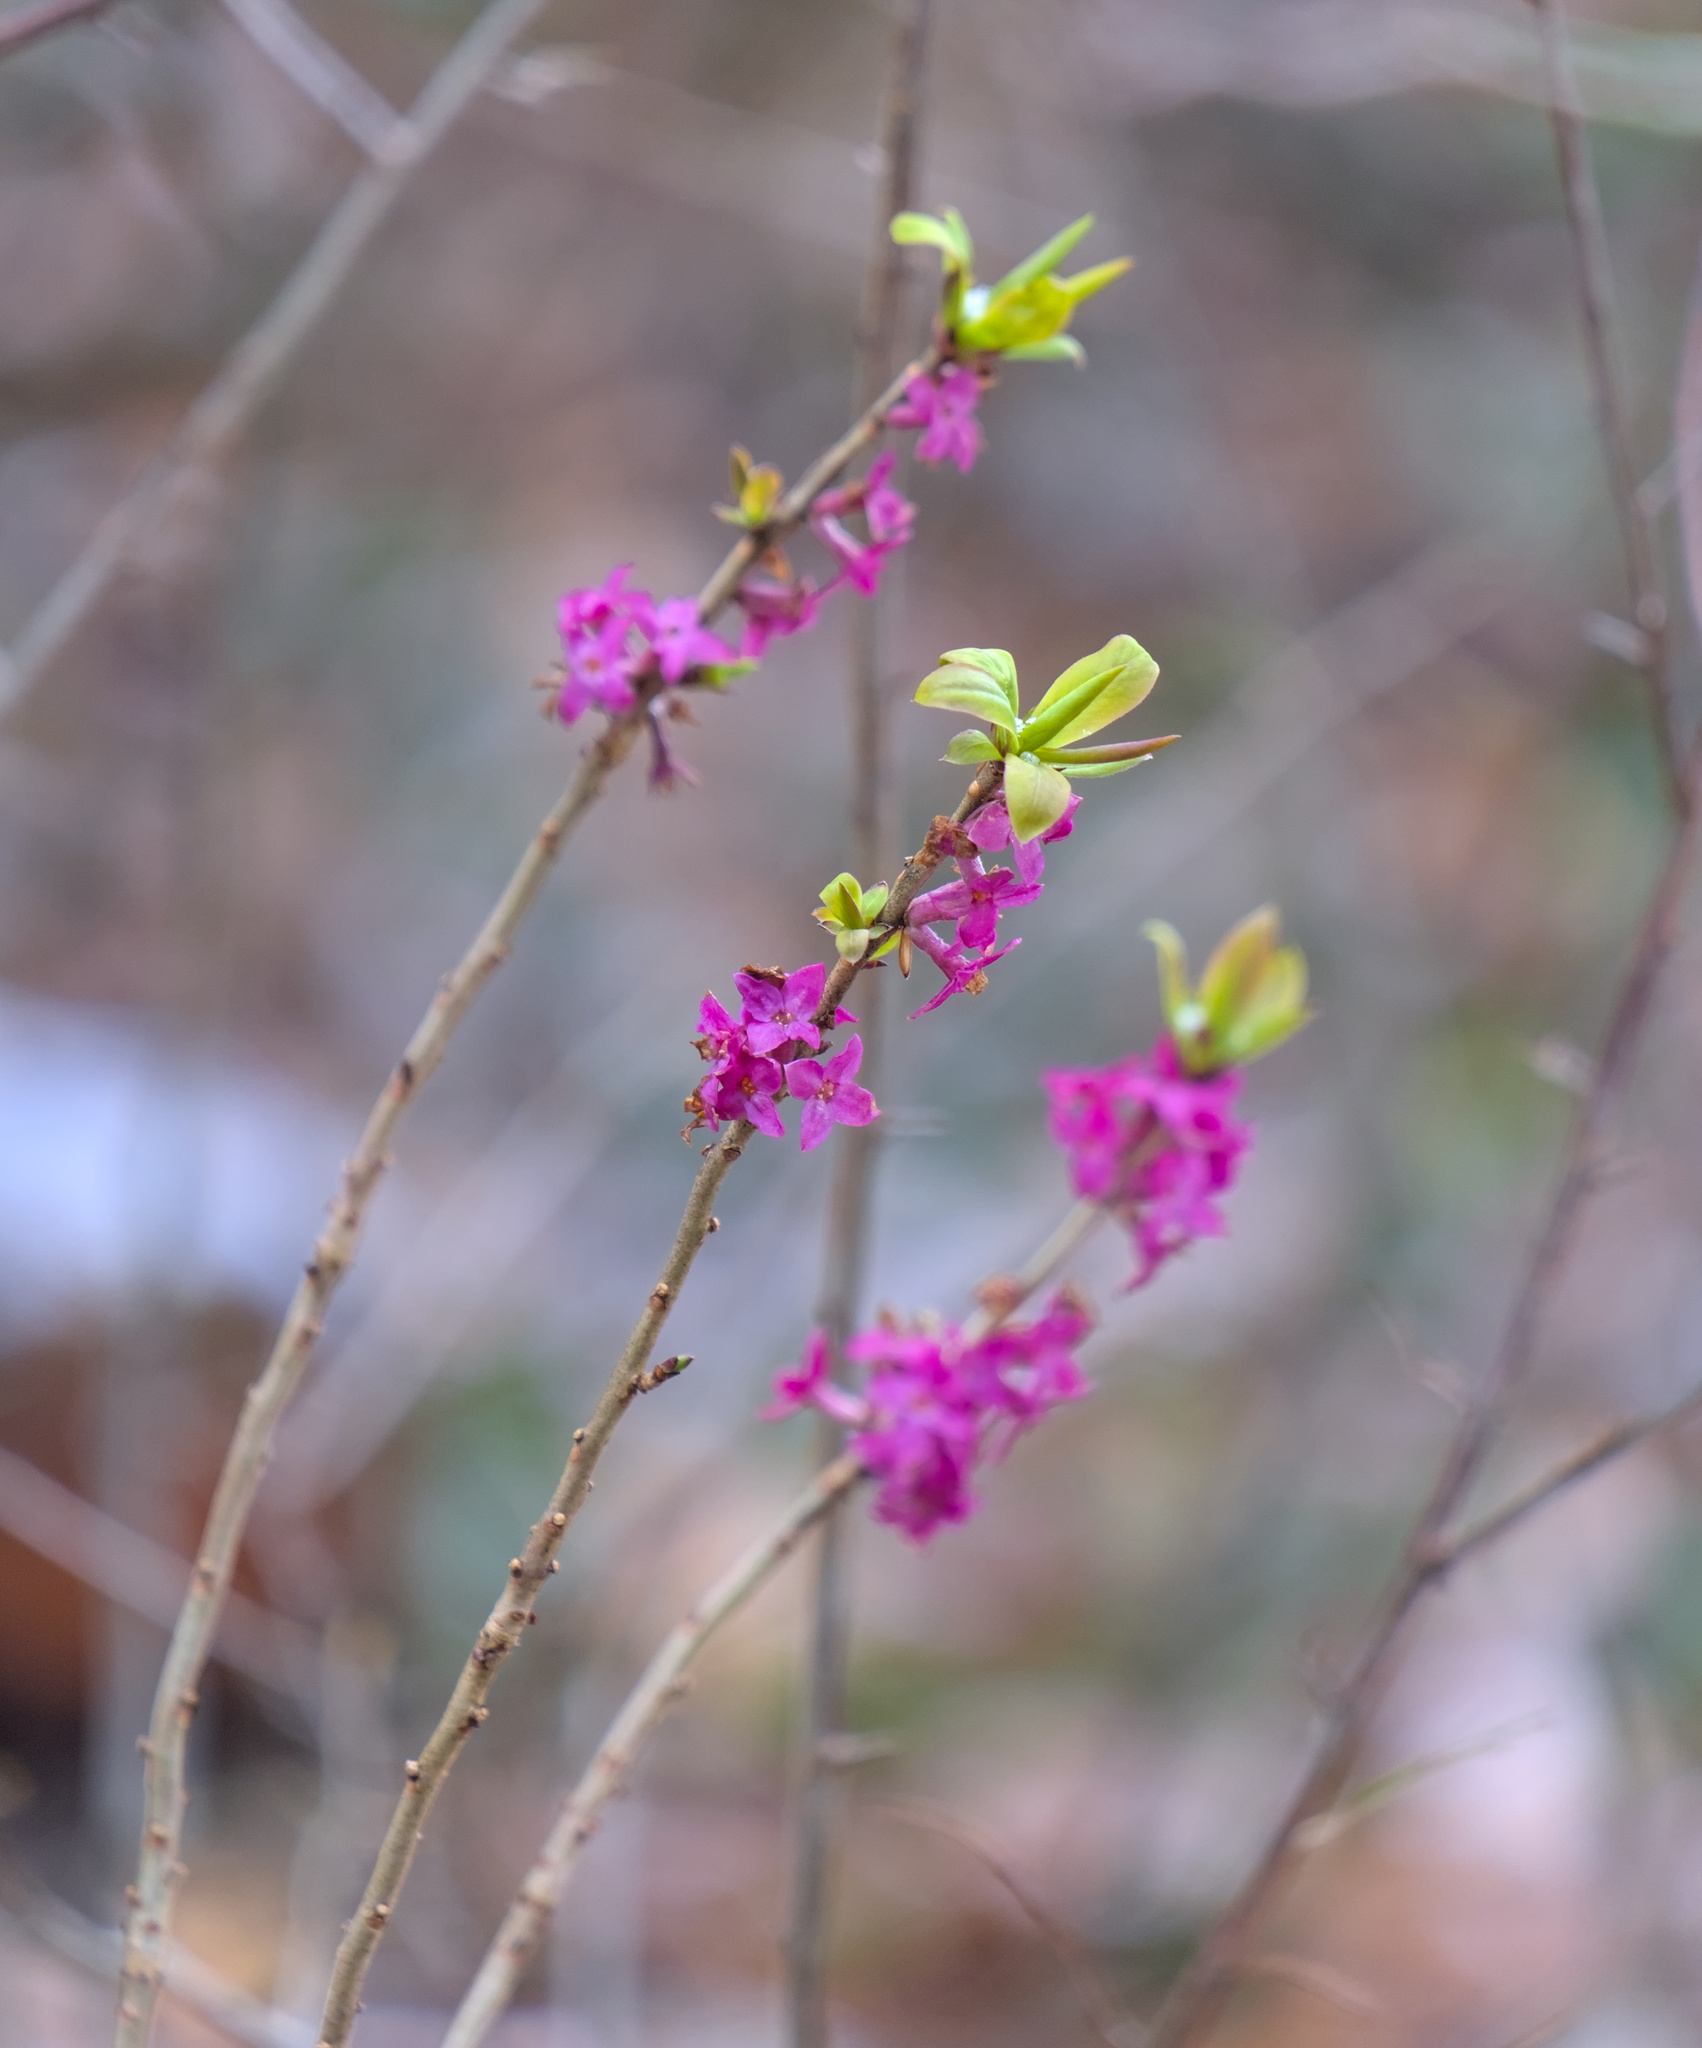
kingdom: Plantae
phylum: Tracheophyta
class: Magnoliopsida
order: Malvales
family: Thymelaeaceae
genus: Daphne
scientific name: Daphne mezereum
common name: Mezereon
